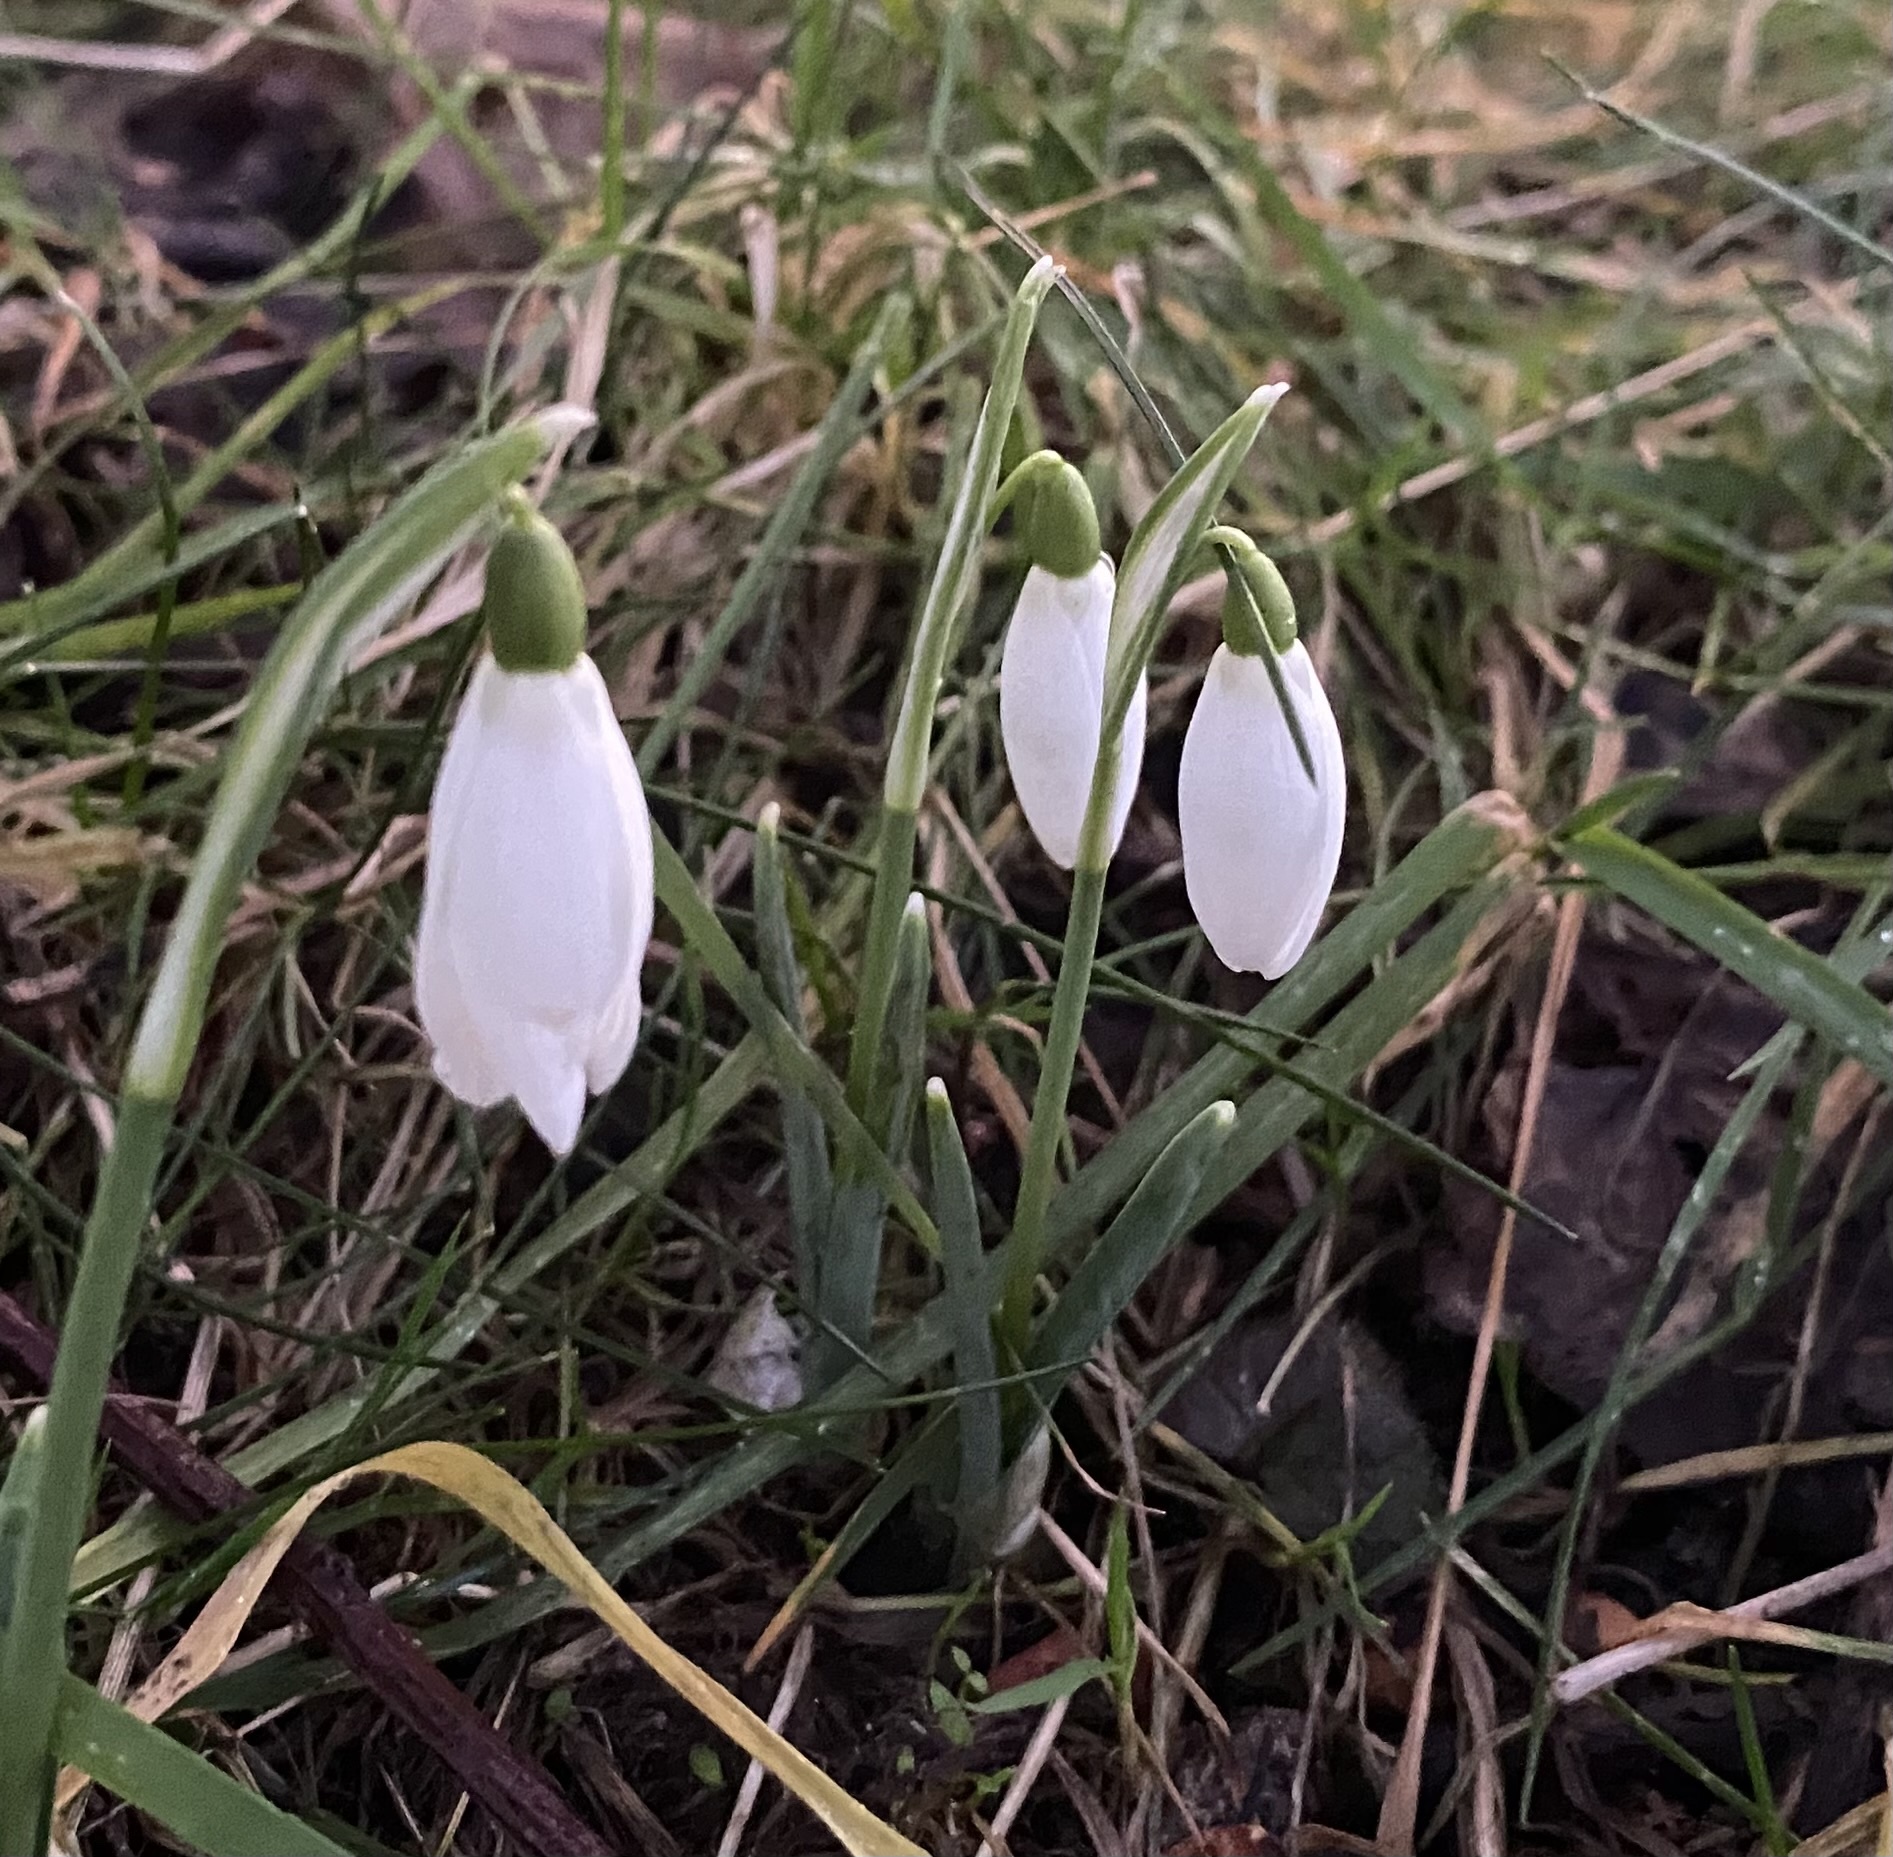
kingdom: Plantae
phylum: Tracheophyta
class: Liliopsida
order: Asparagales
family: Amaryllidaceae
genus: Galanthus
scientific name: Galanthus nivalis
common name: Snowdrop
